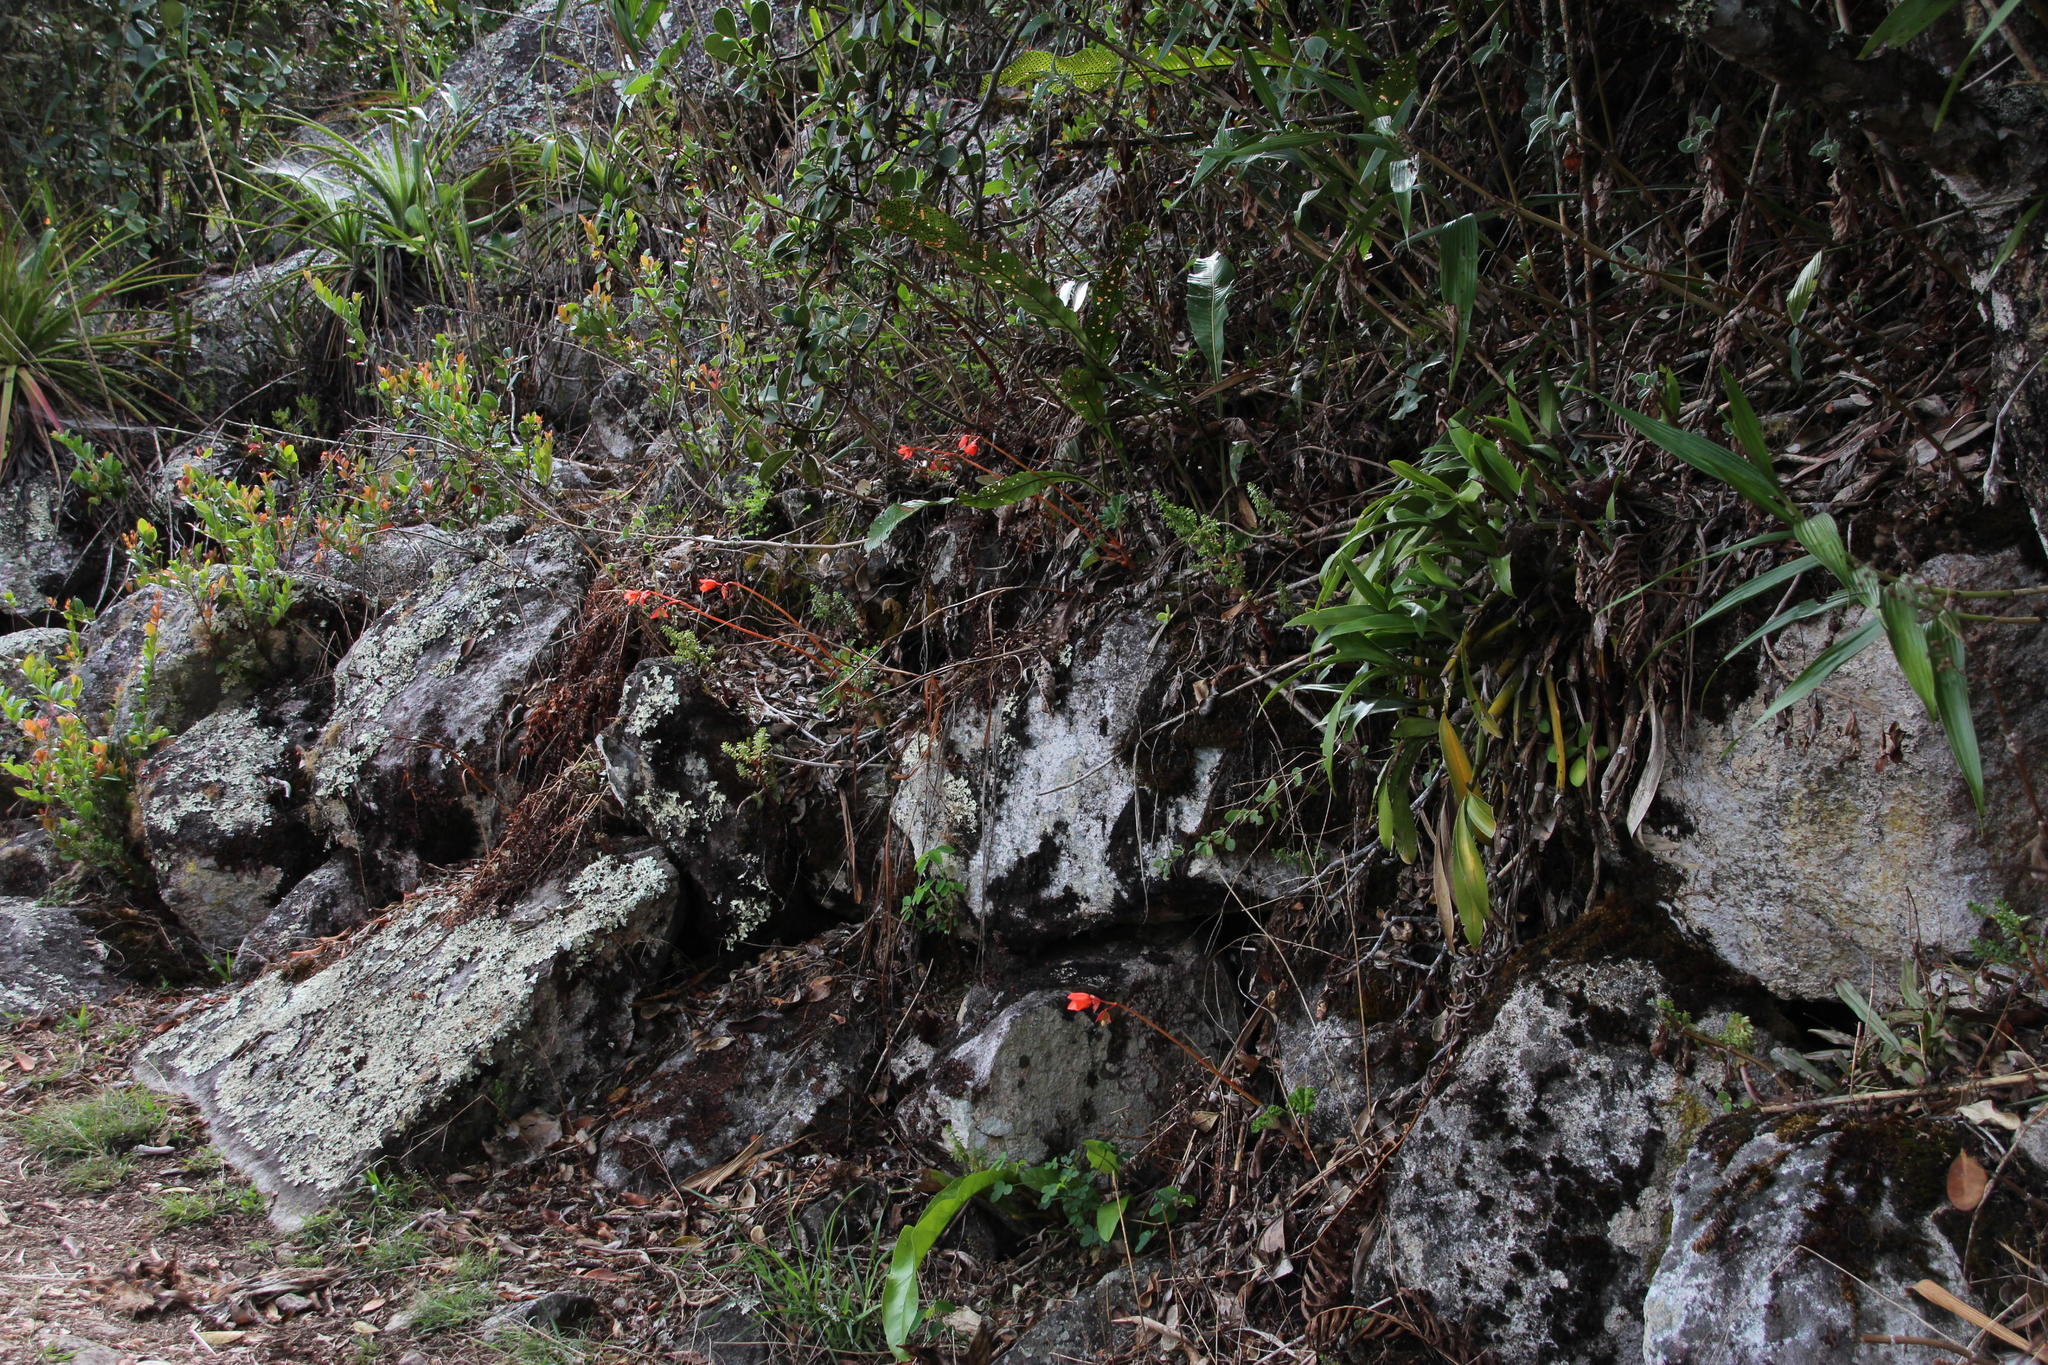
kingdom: Plantae
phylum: Tracheophyta
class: Magnoliopsida
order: Cucurbitales
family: Begoniaceae
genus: Begonia
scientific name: Begonia veitchii
